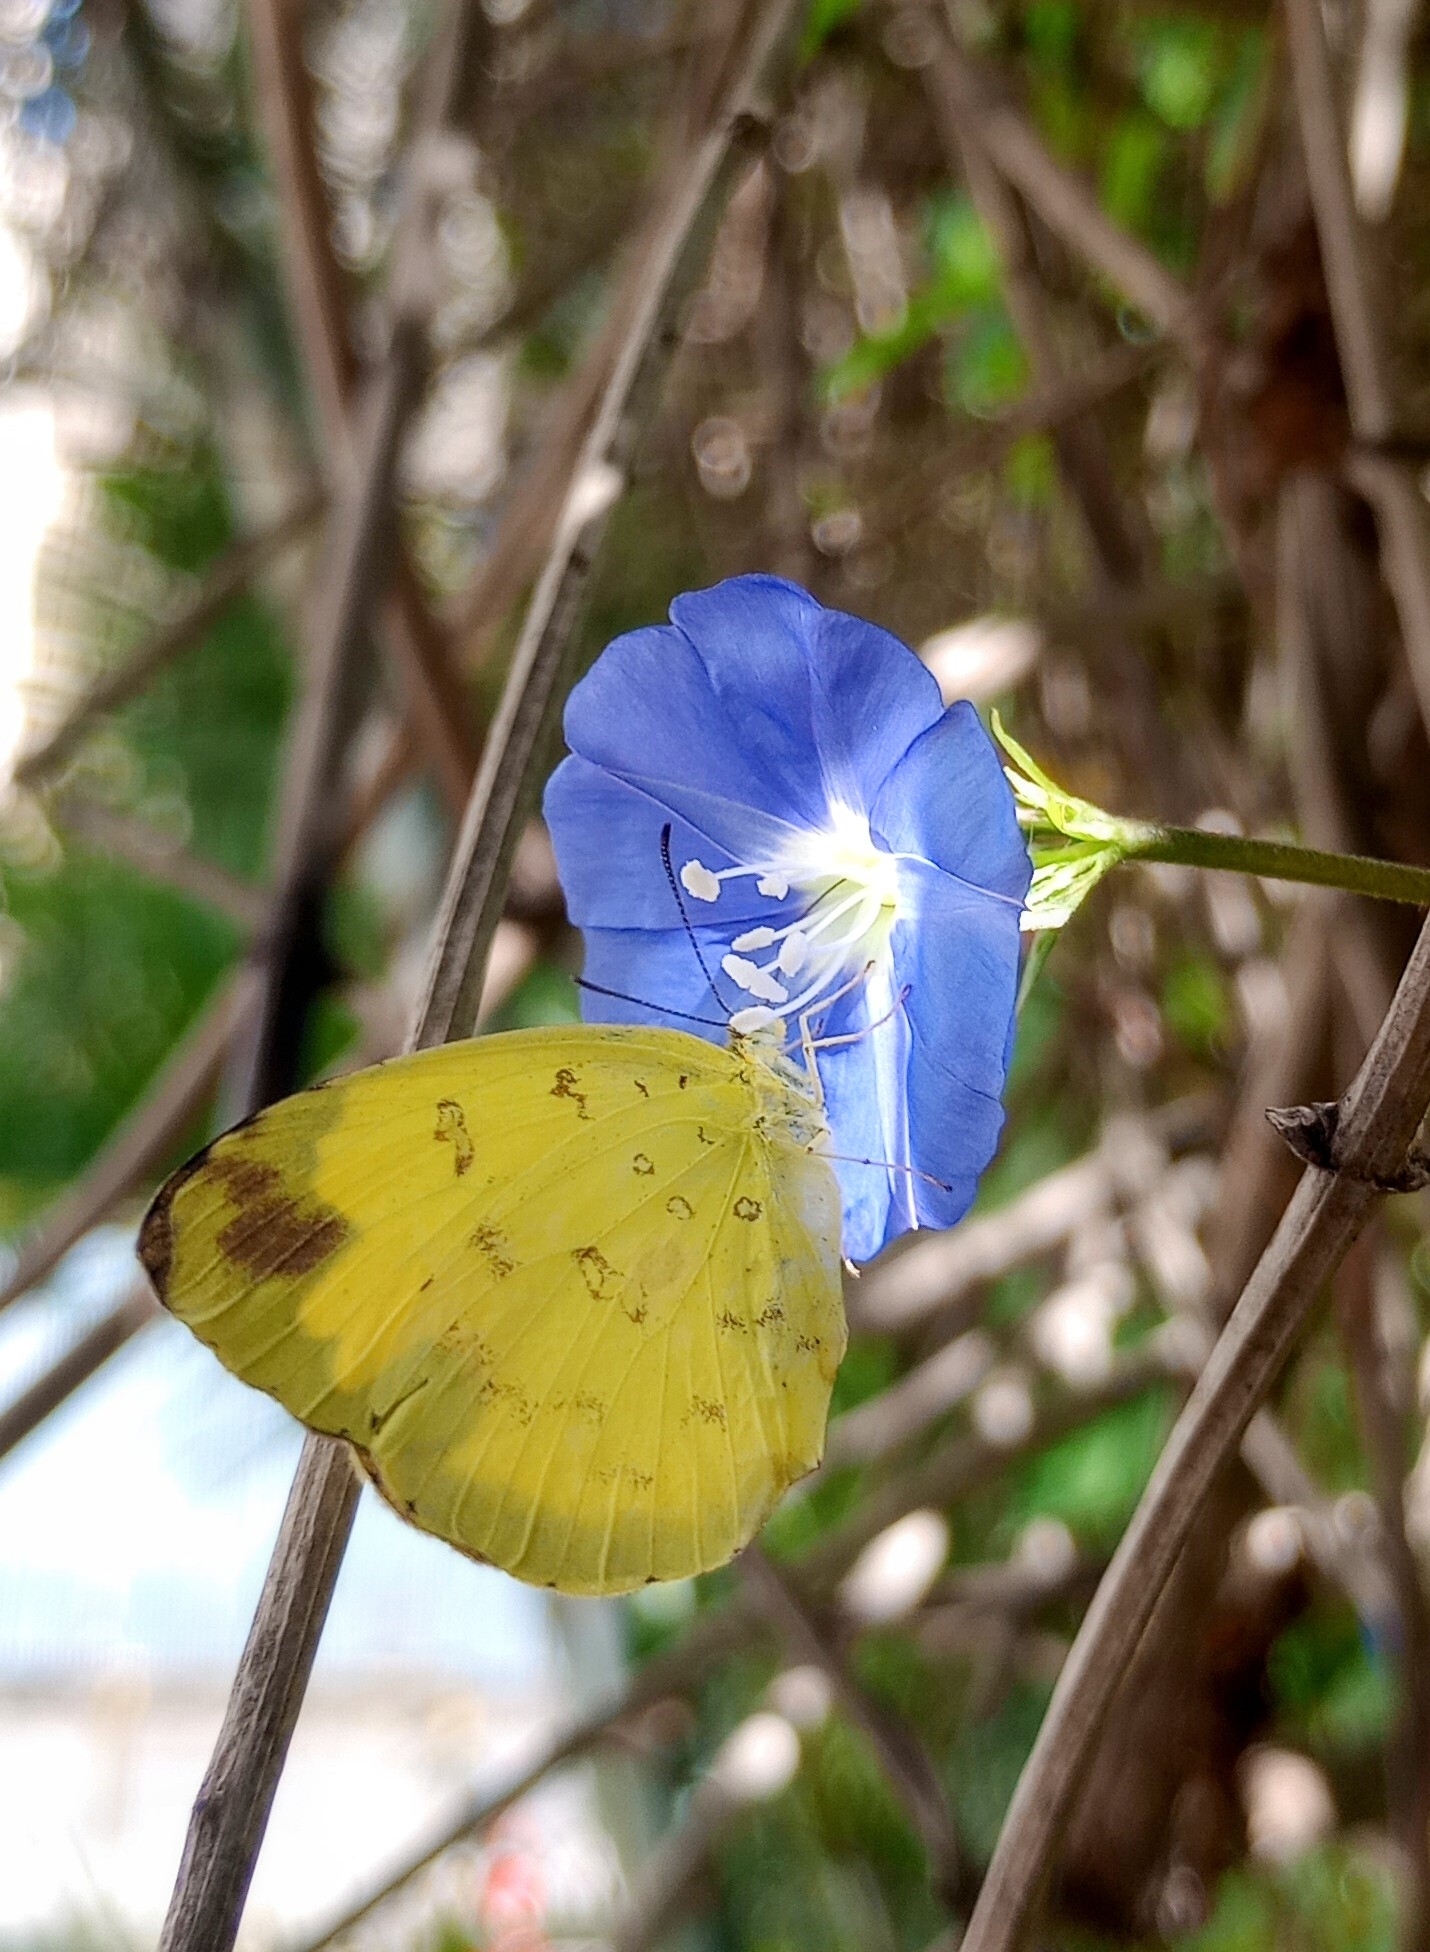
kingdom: Animalia
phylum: Arthropoda
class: Insecta
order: Lepidoptera
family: Pieridae
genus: Eurema
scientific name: Eurema blanda
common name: Three-spot grass yellow
